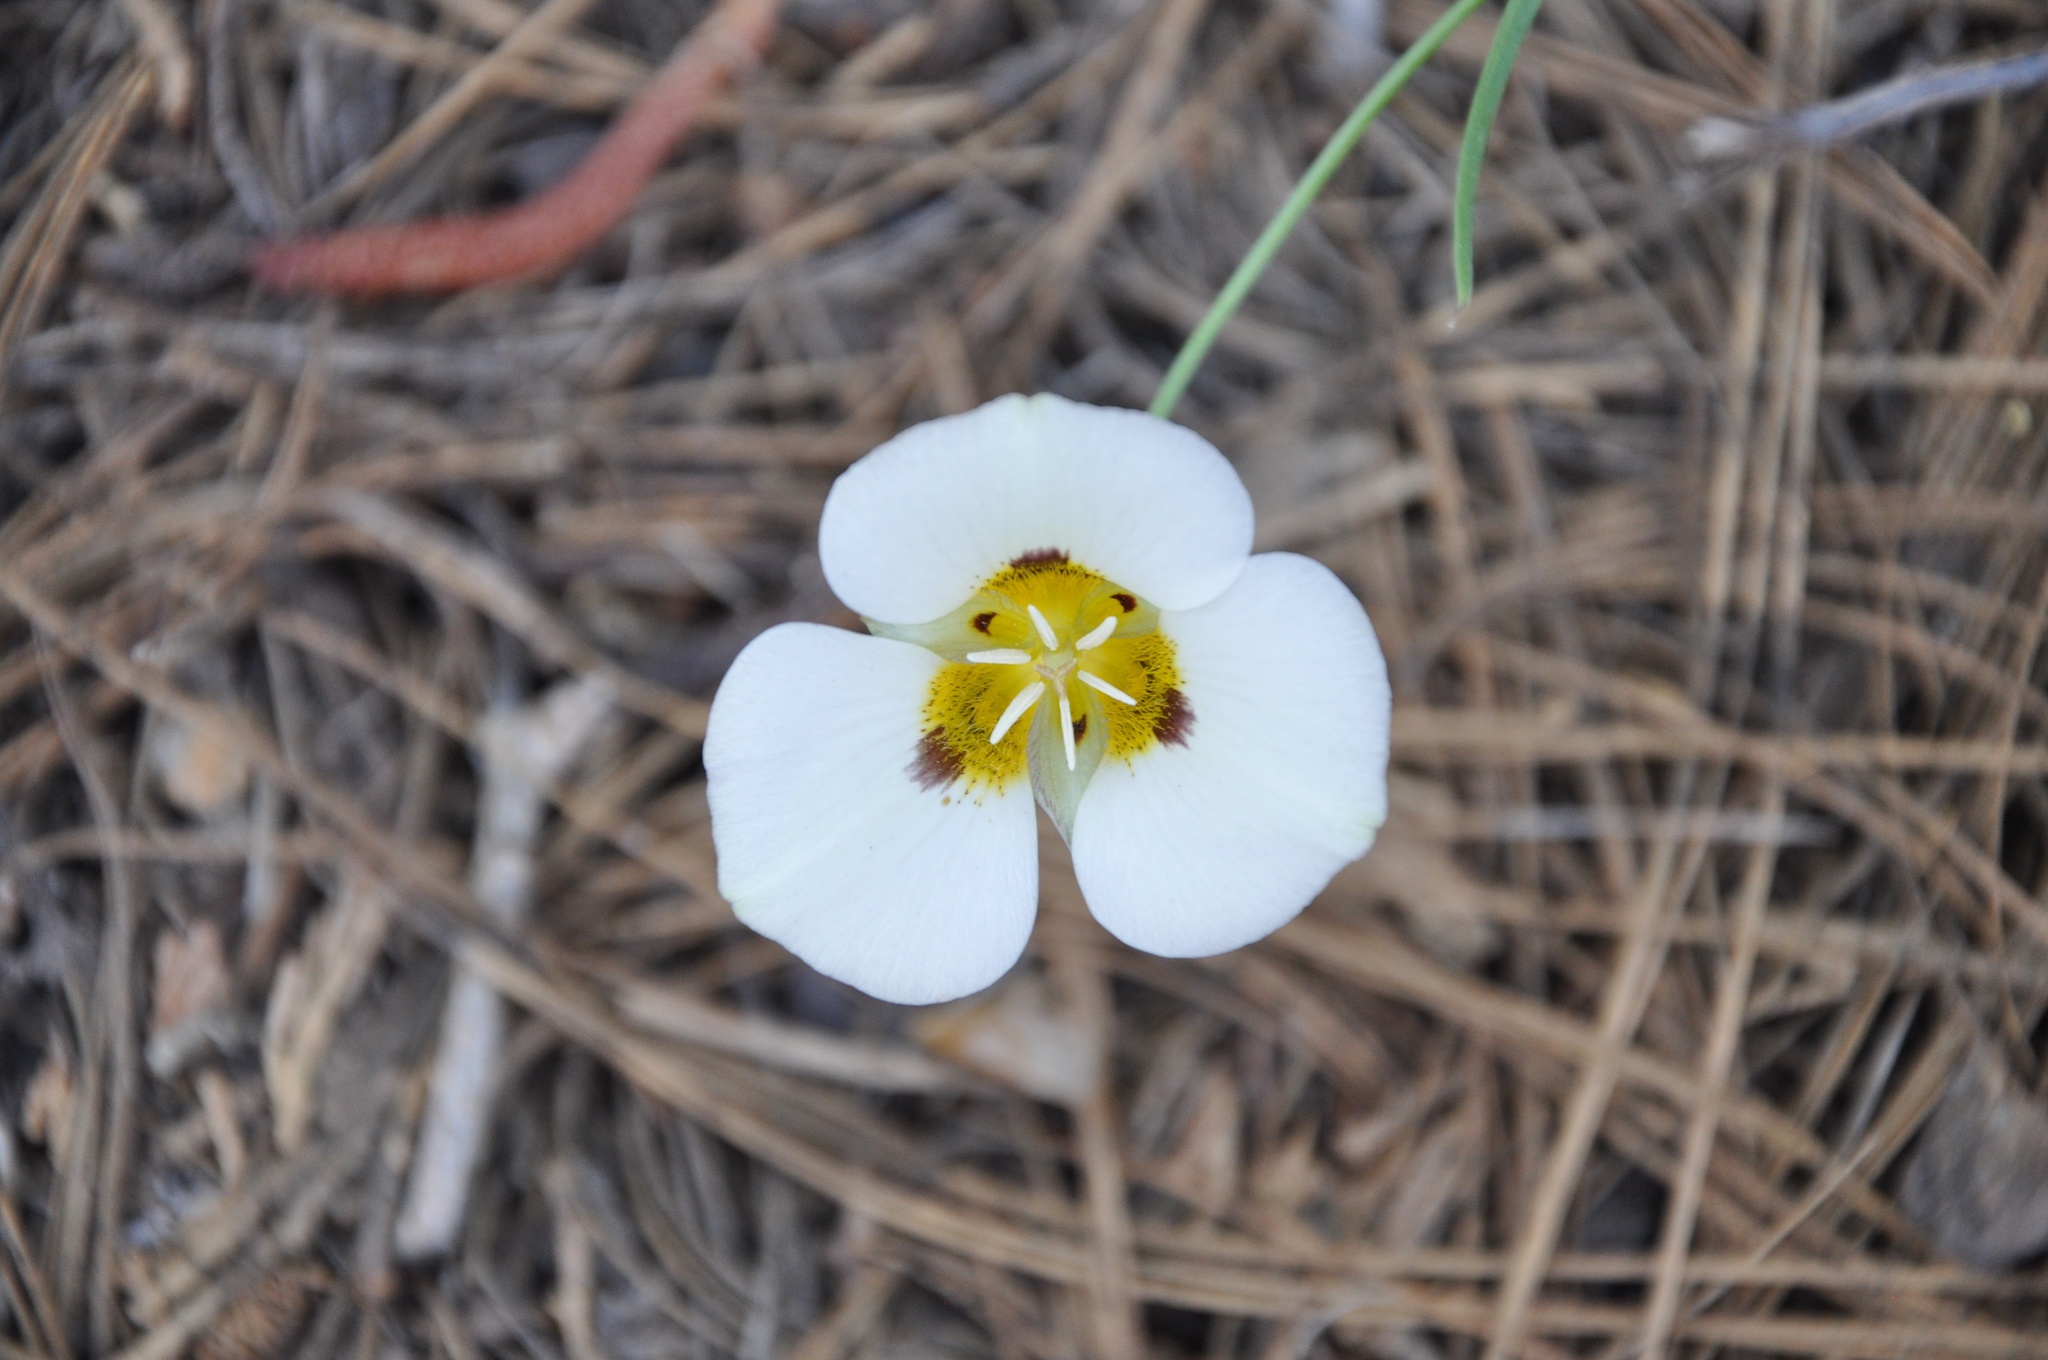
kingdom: Plantae
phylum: Tracheophyta
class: Liliopsida
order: Liliales
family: Liliaceae
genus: Calochortus
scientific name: Calochortus leichtlinii
